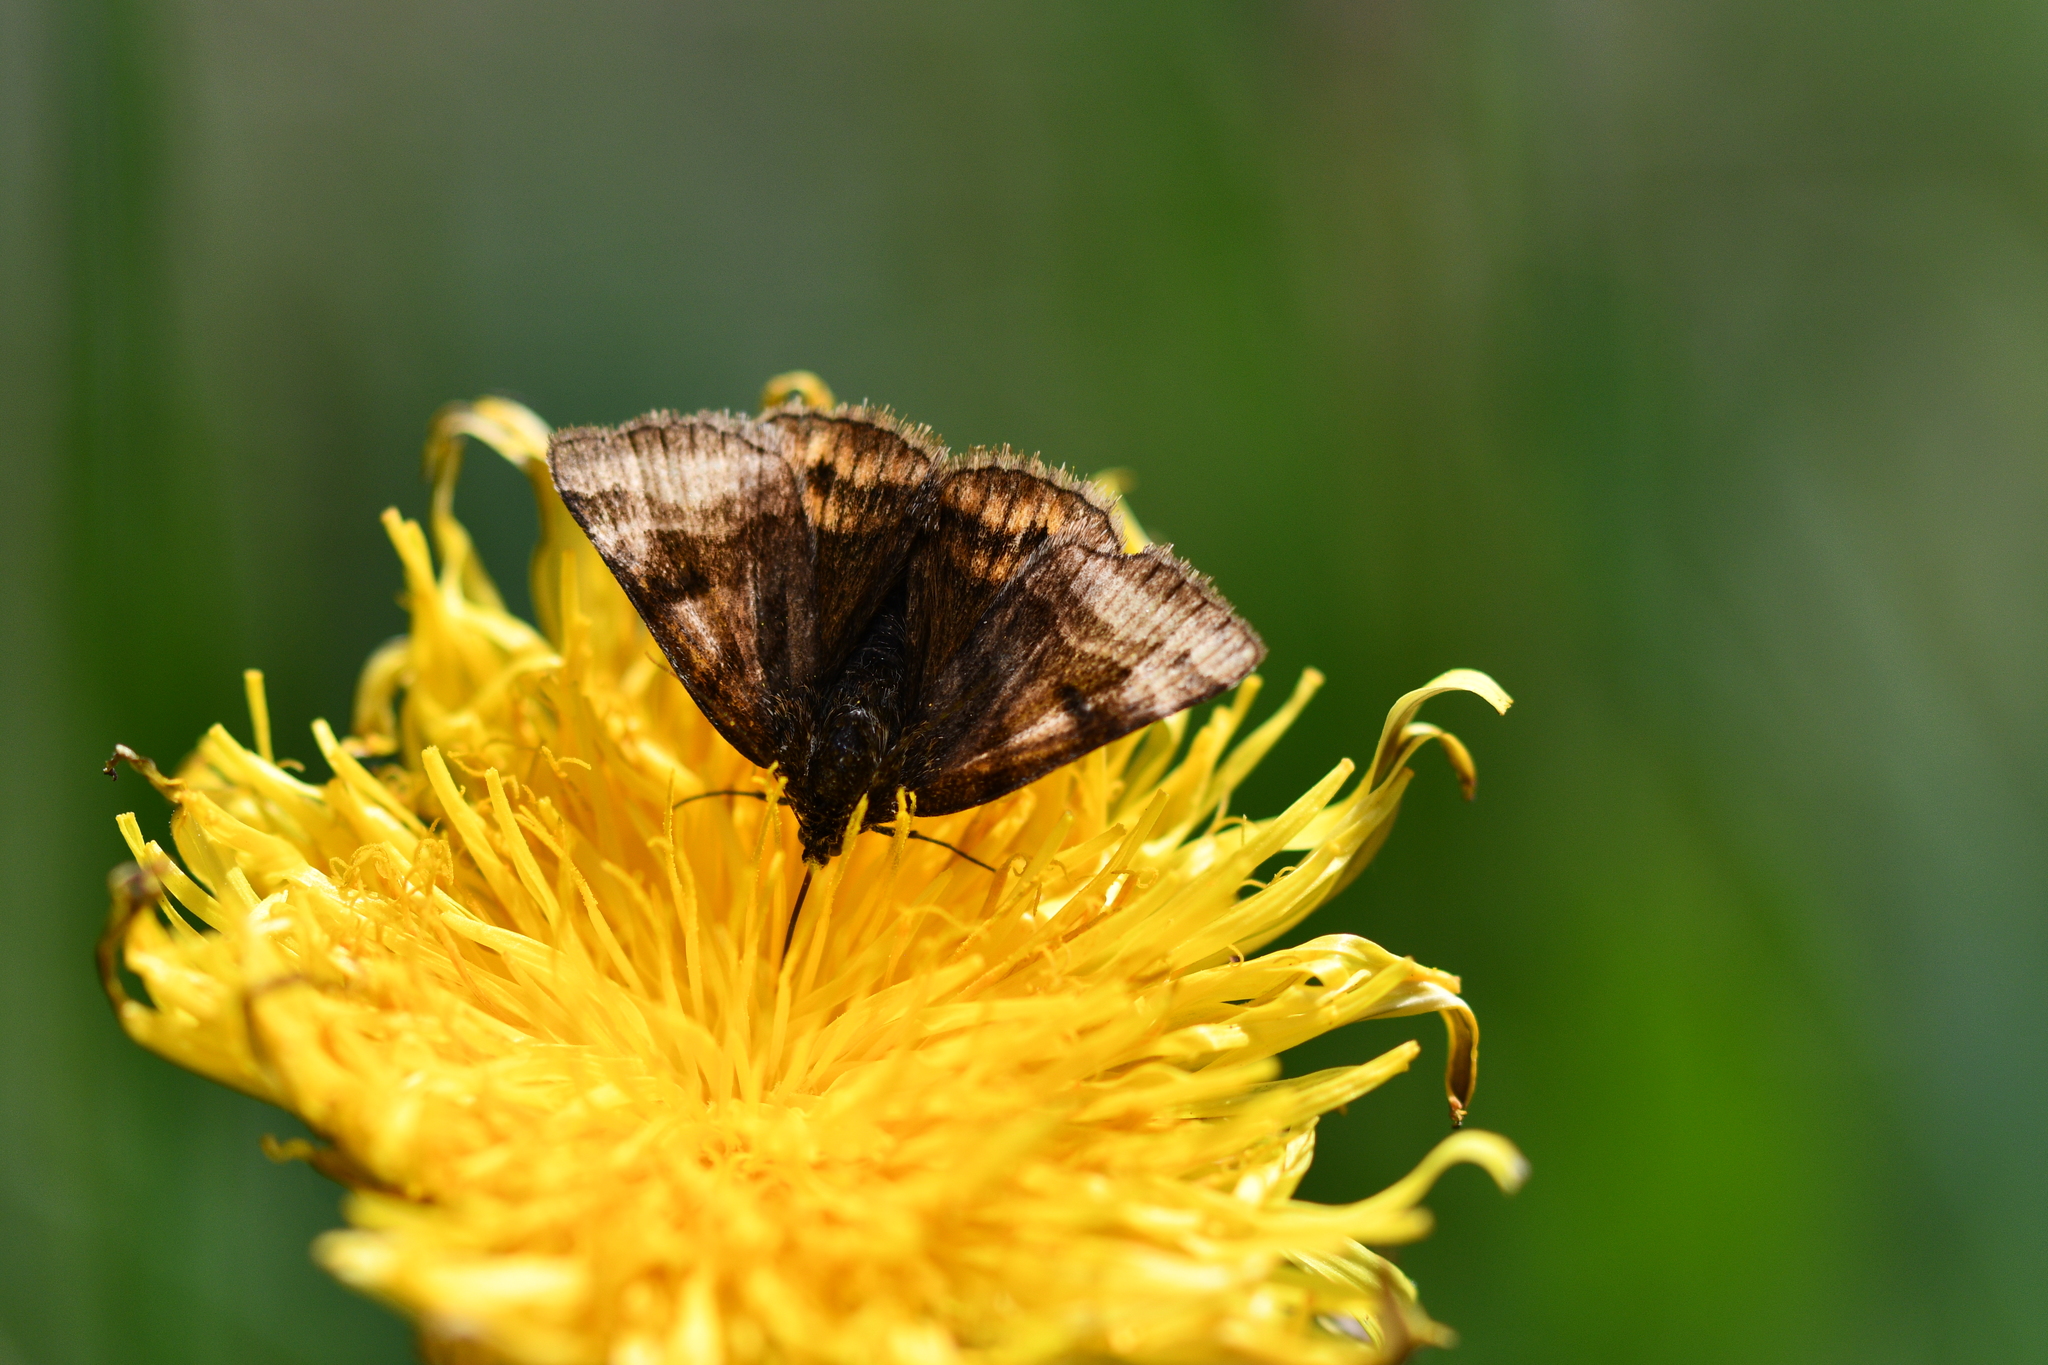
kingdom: Animalia
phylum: Arthropoda
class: Insecta
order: Lepidoptera
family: Erebidae
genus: Euclidia
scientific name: Euclidia glyphica
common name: Burnet companion
